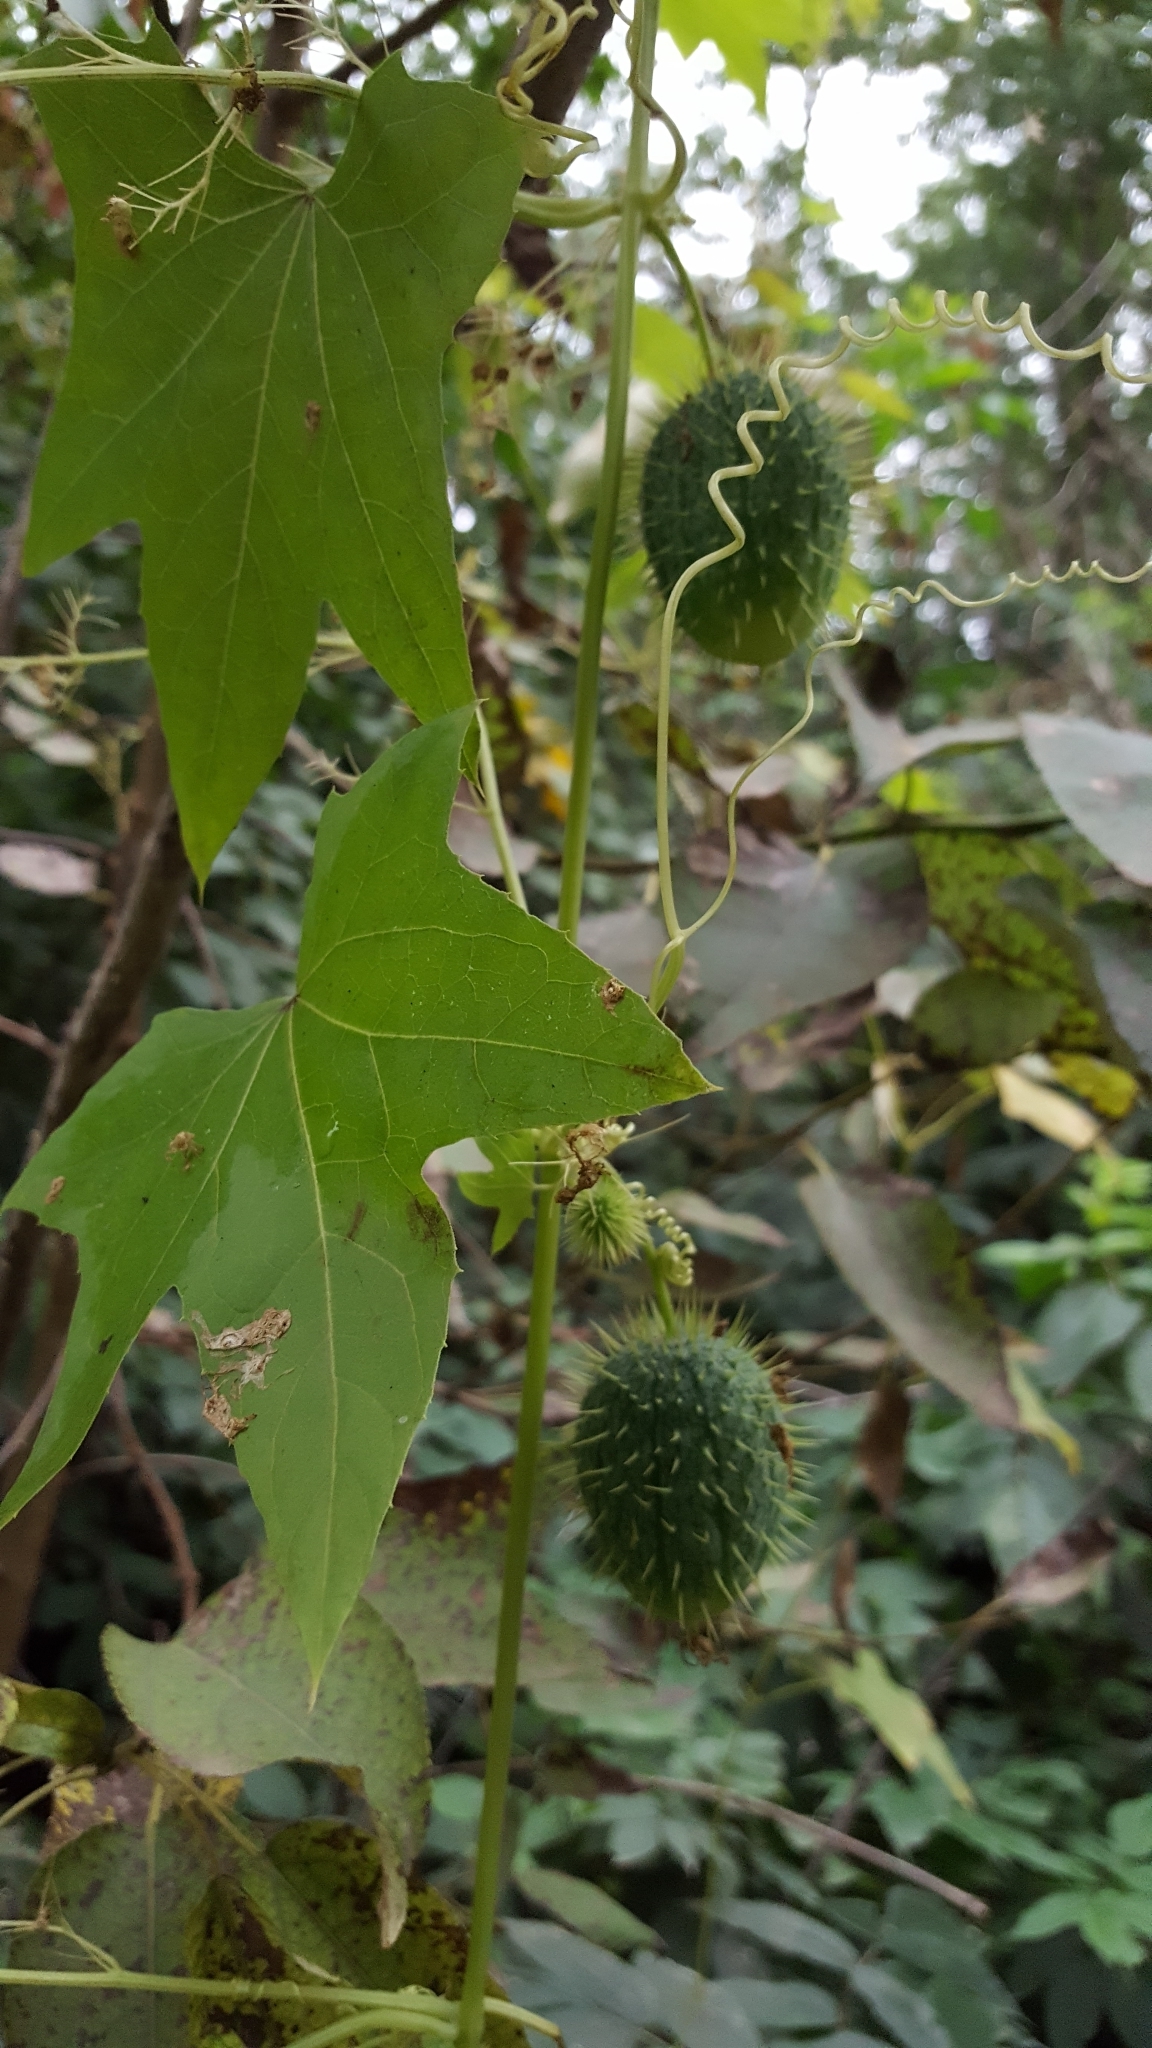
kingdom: Plantae
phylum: Tracheophyta
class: Magnoliopsida
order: Cucurbitales
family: Cucurbitaceae
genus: Echinocystis
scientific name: Echinocystis lobata
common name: Wild cucumber
